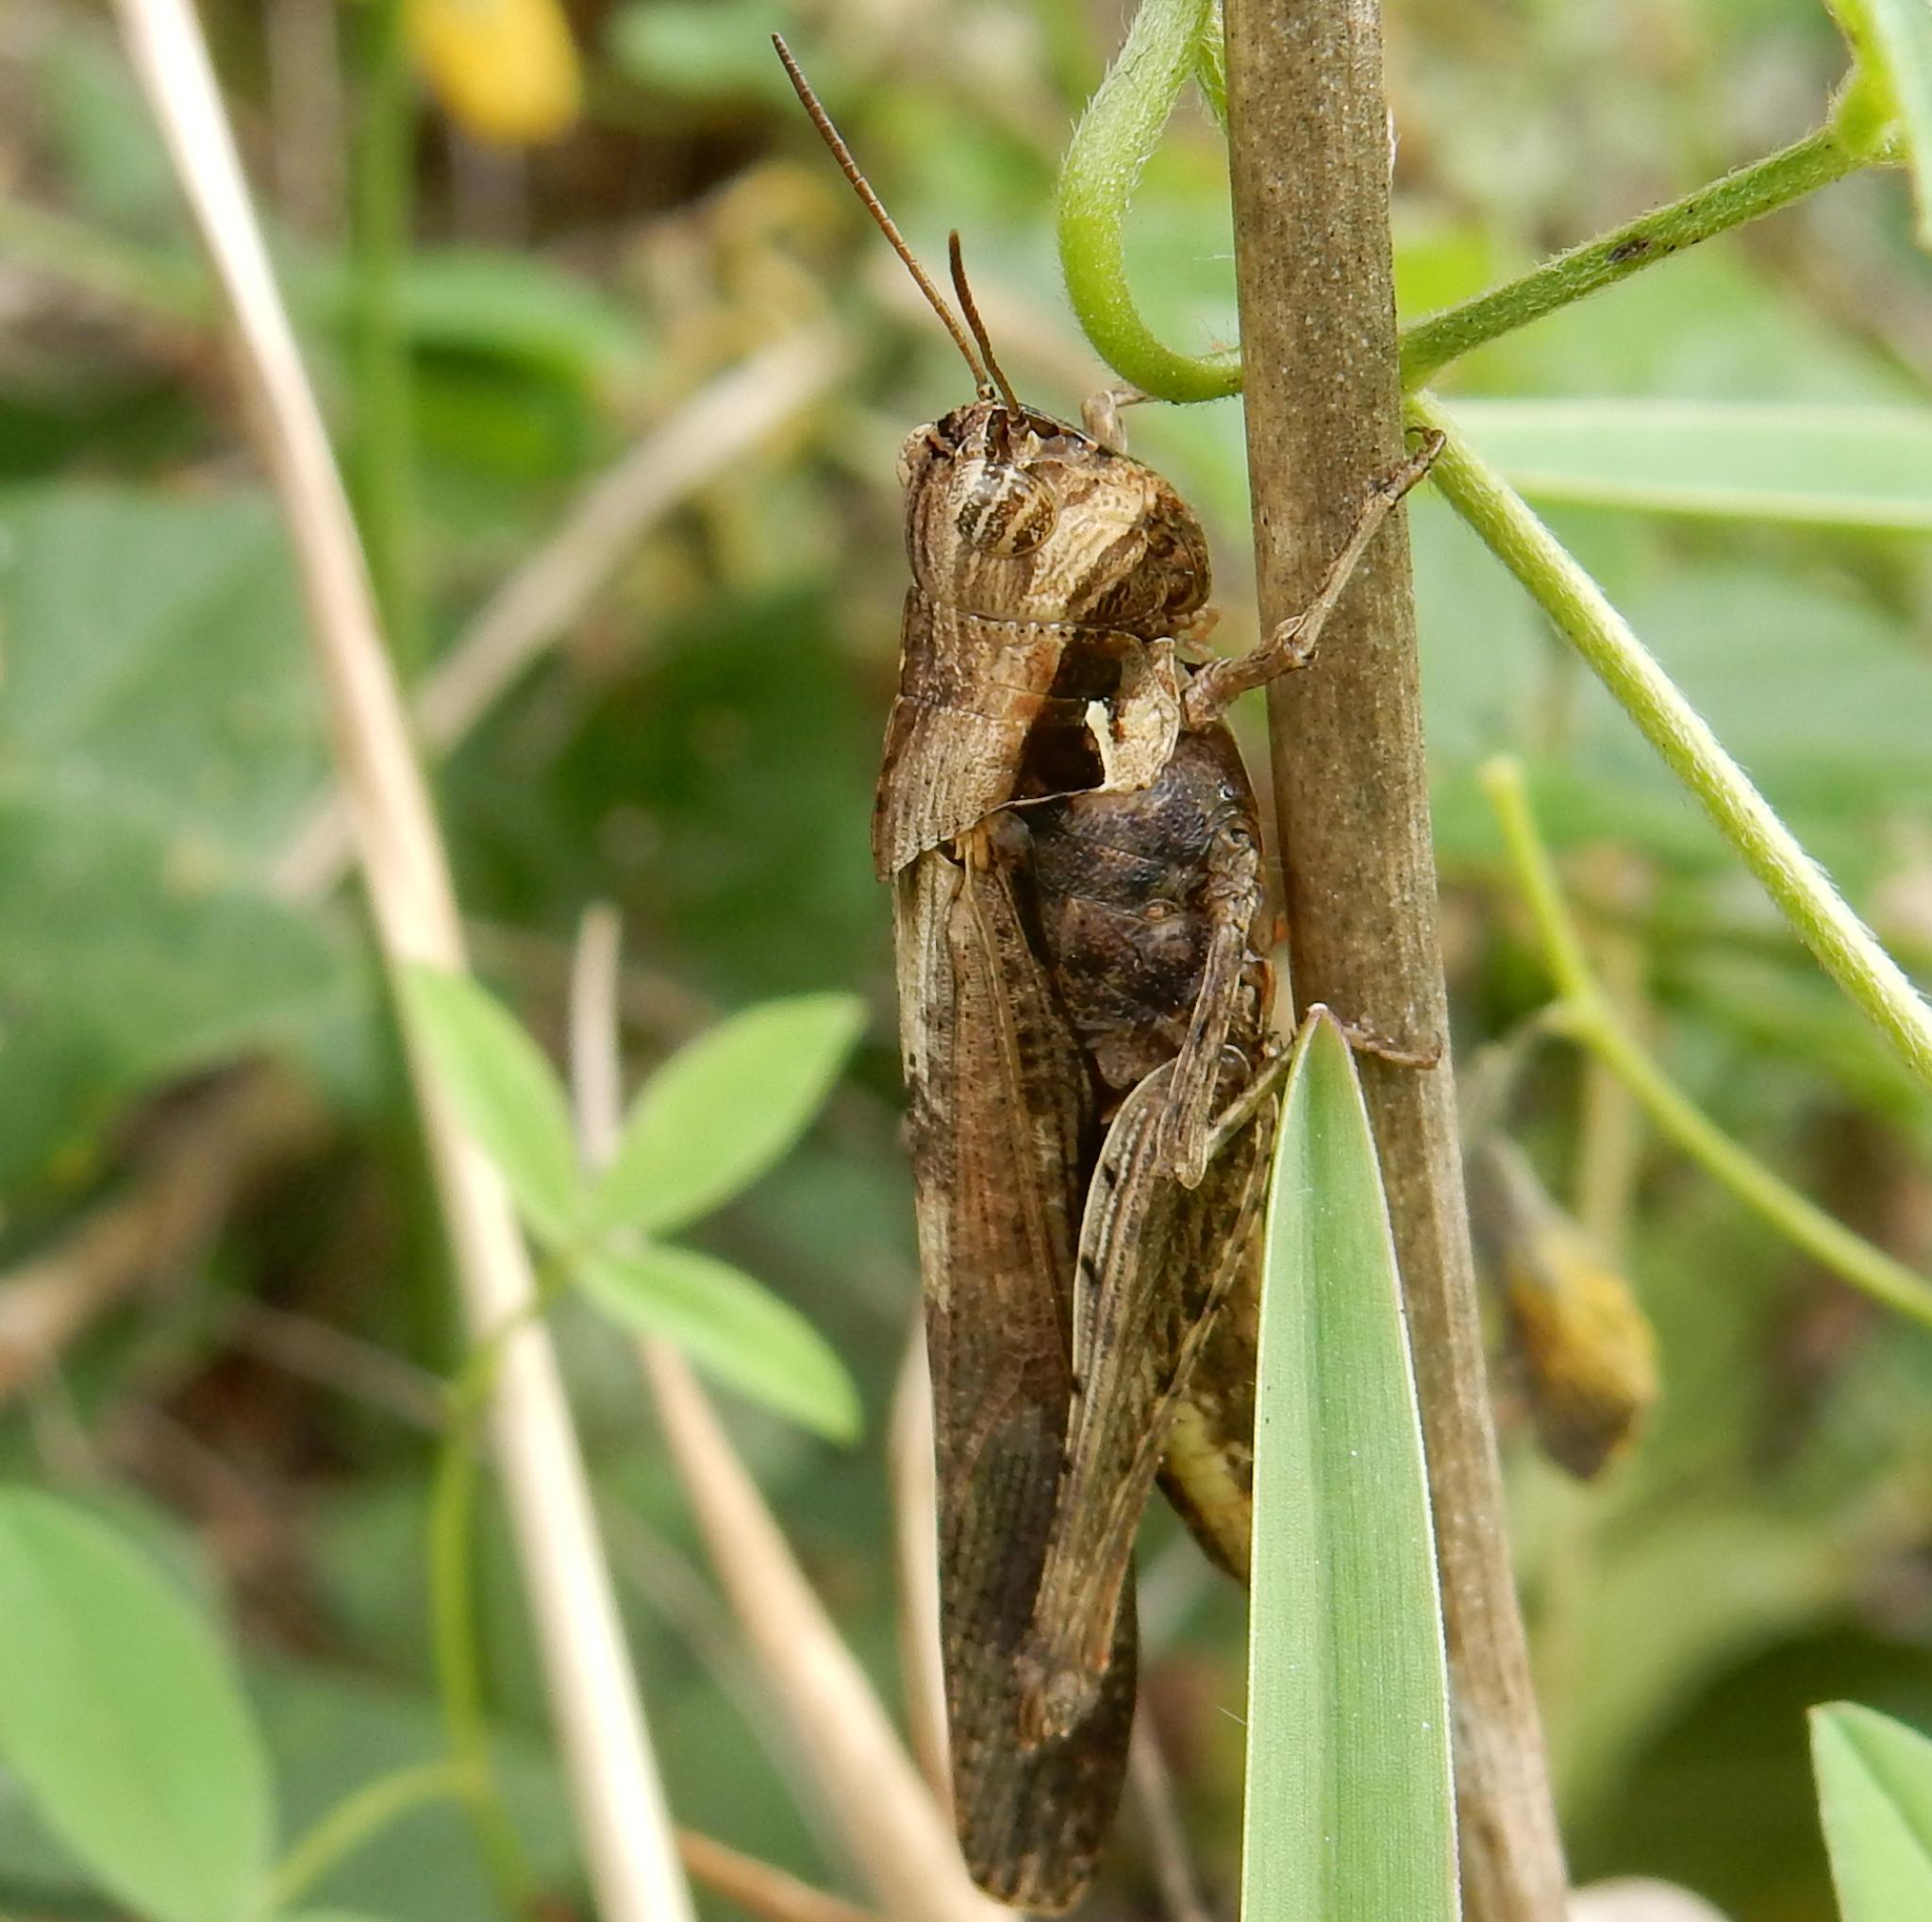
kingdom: Animalia
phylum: Arthropoda
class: Insecta
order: Orthoptera
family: Acrididae
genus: Morphacris
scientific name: Morphacris fasciata
